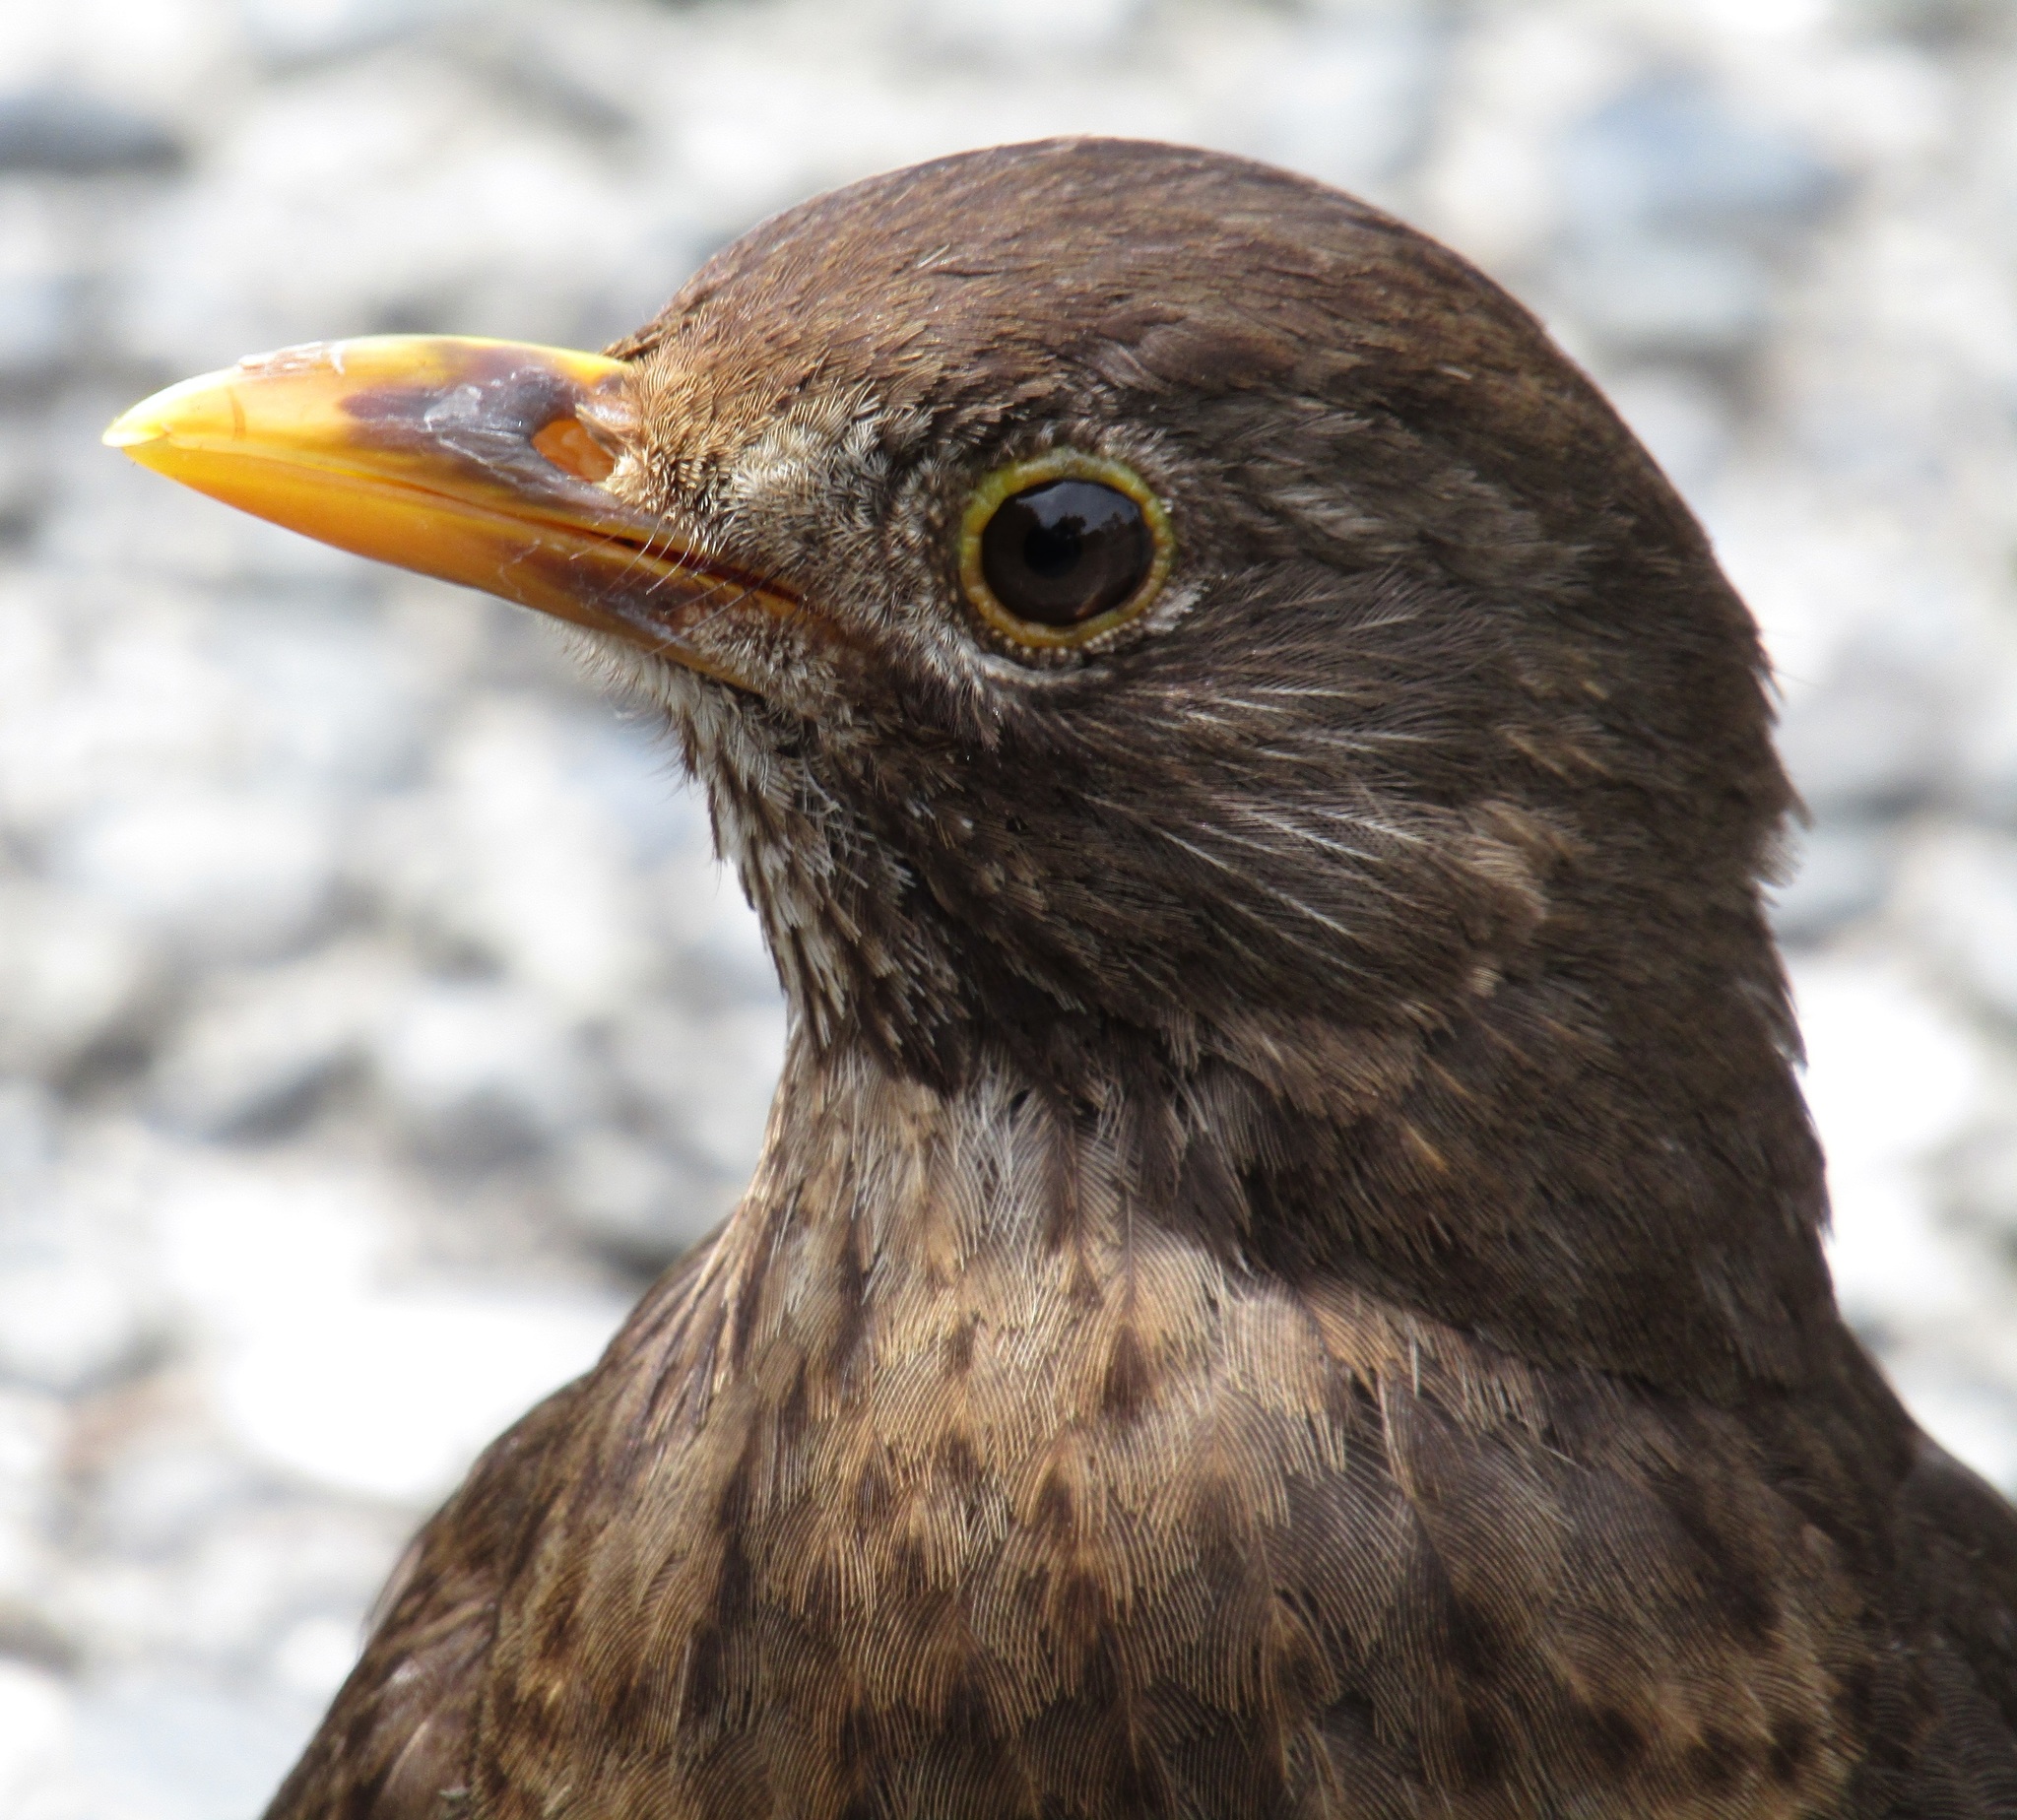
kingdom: Animalia
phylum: Chordata
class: Aves
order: Passeriformes
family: Turdidae
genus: Turdus
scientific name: Turdus merula
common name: Common blackbird
